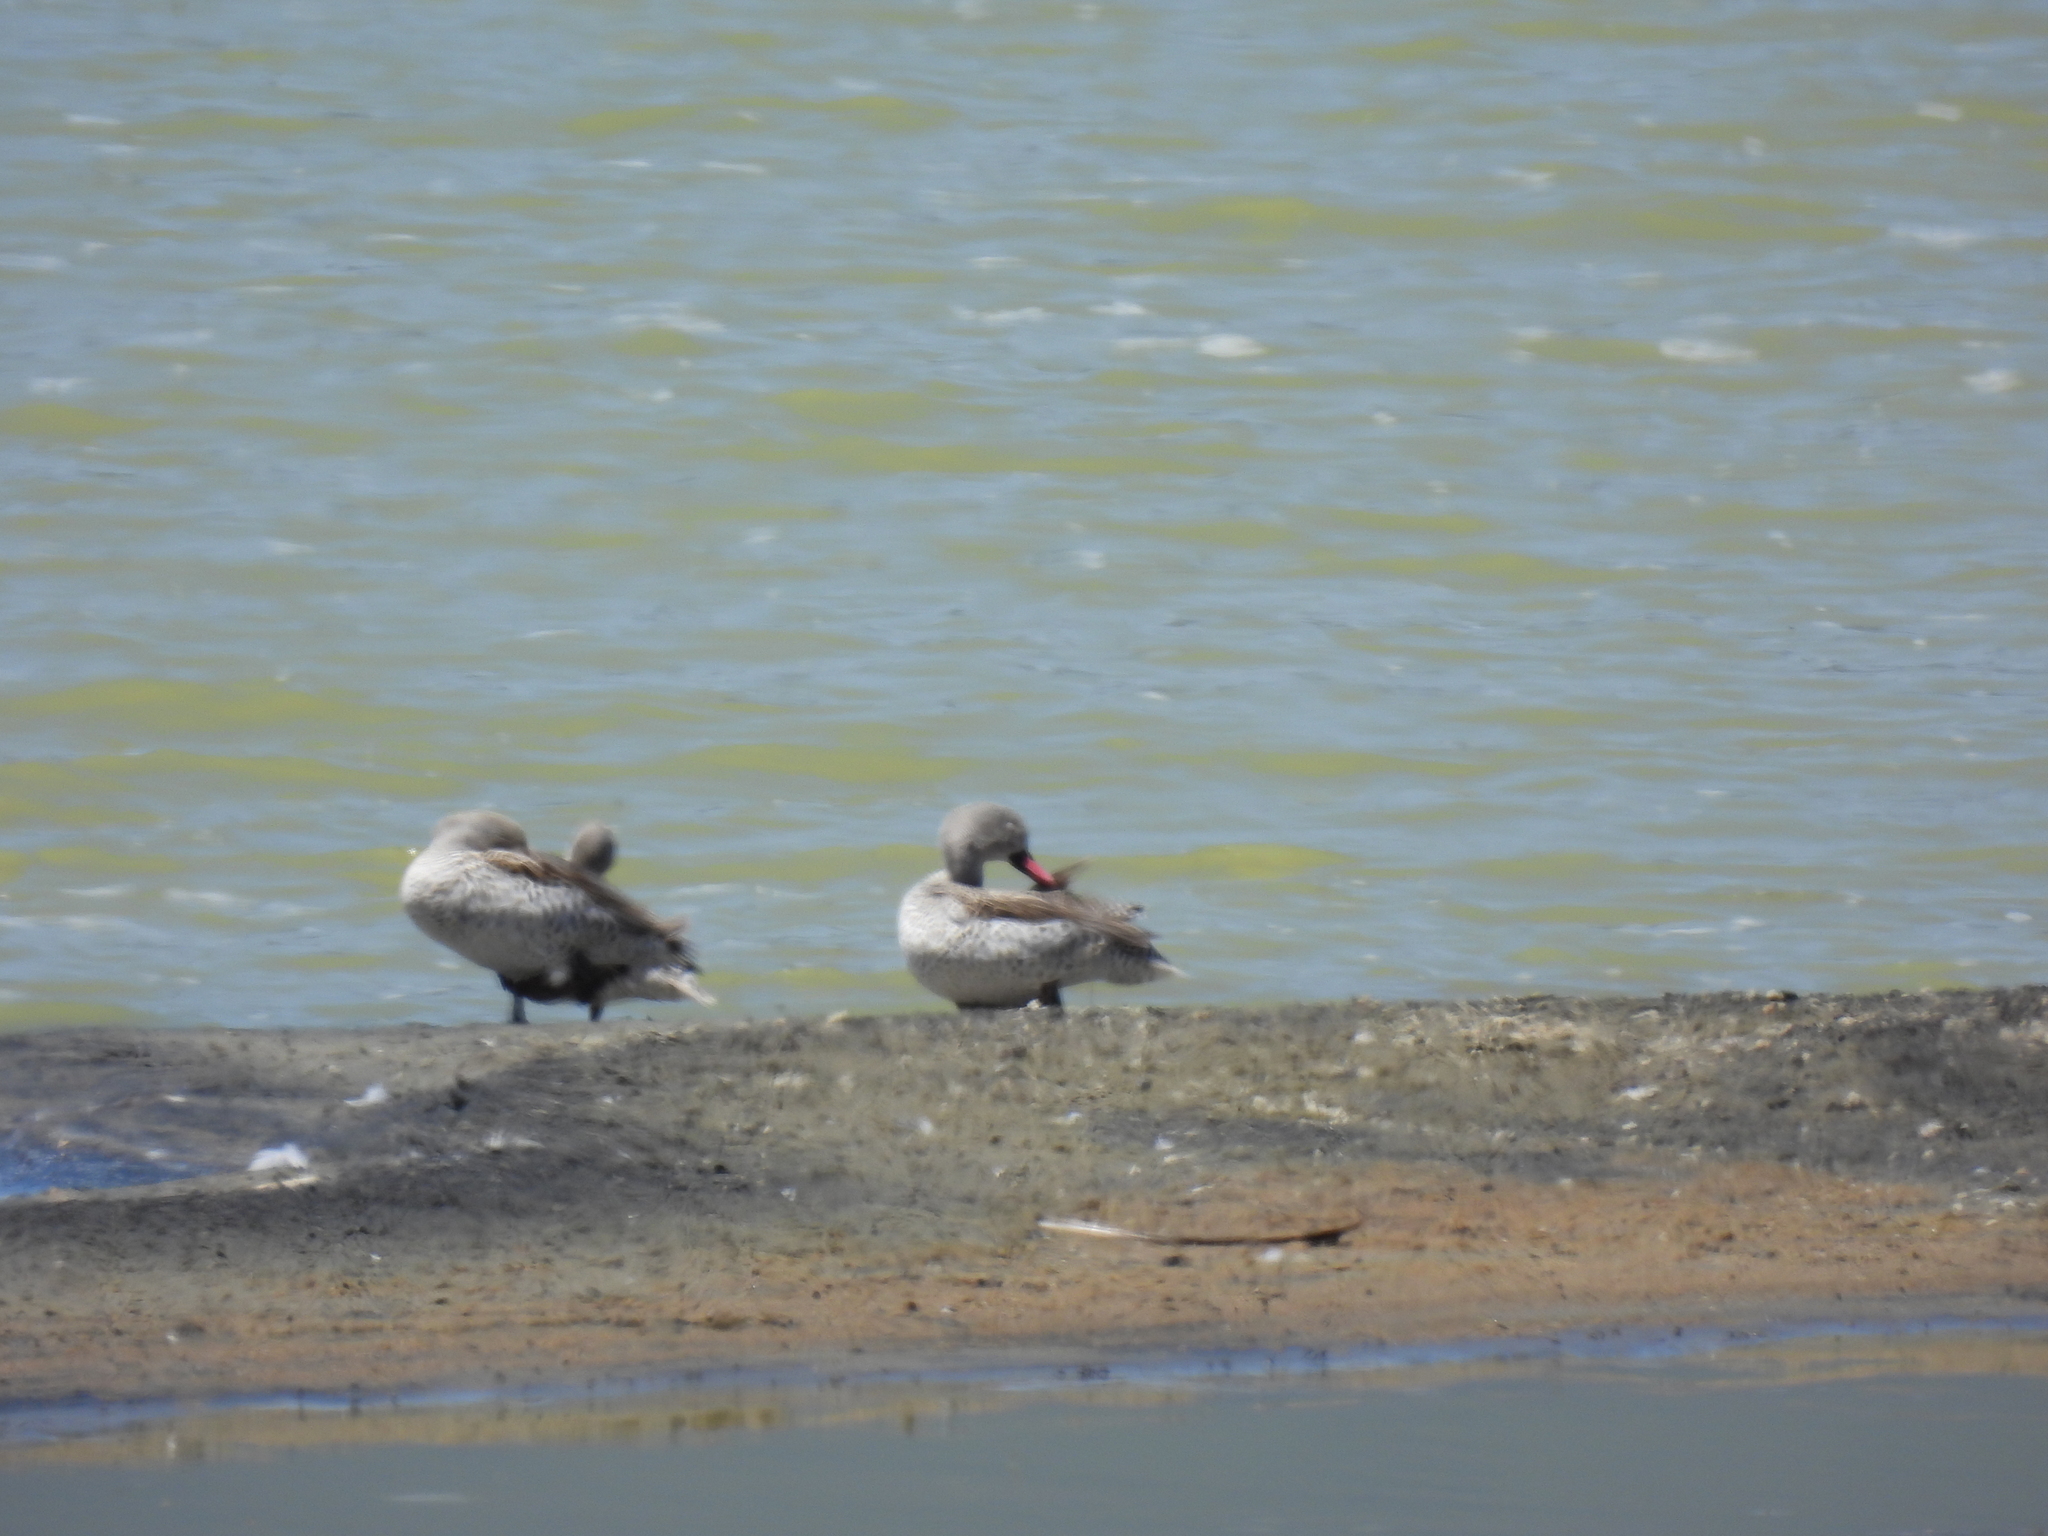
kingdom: Animalia
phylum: Chordata
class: Aves
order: Anseriformes
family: Anatidae
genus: Anas
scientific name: Anas capensis
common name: Cape teal
